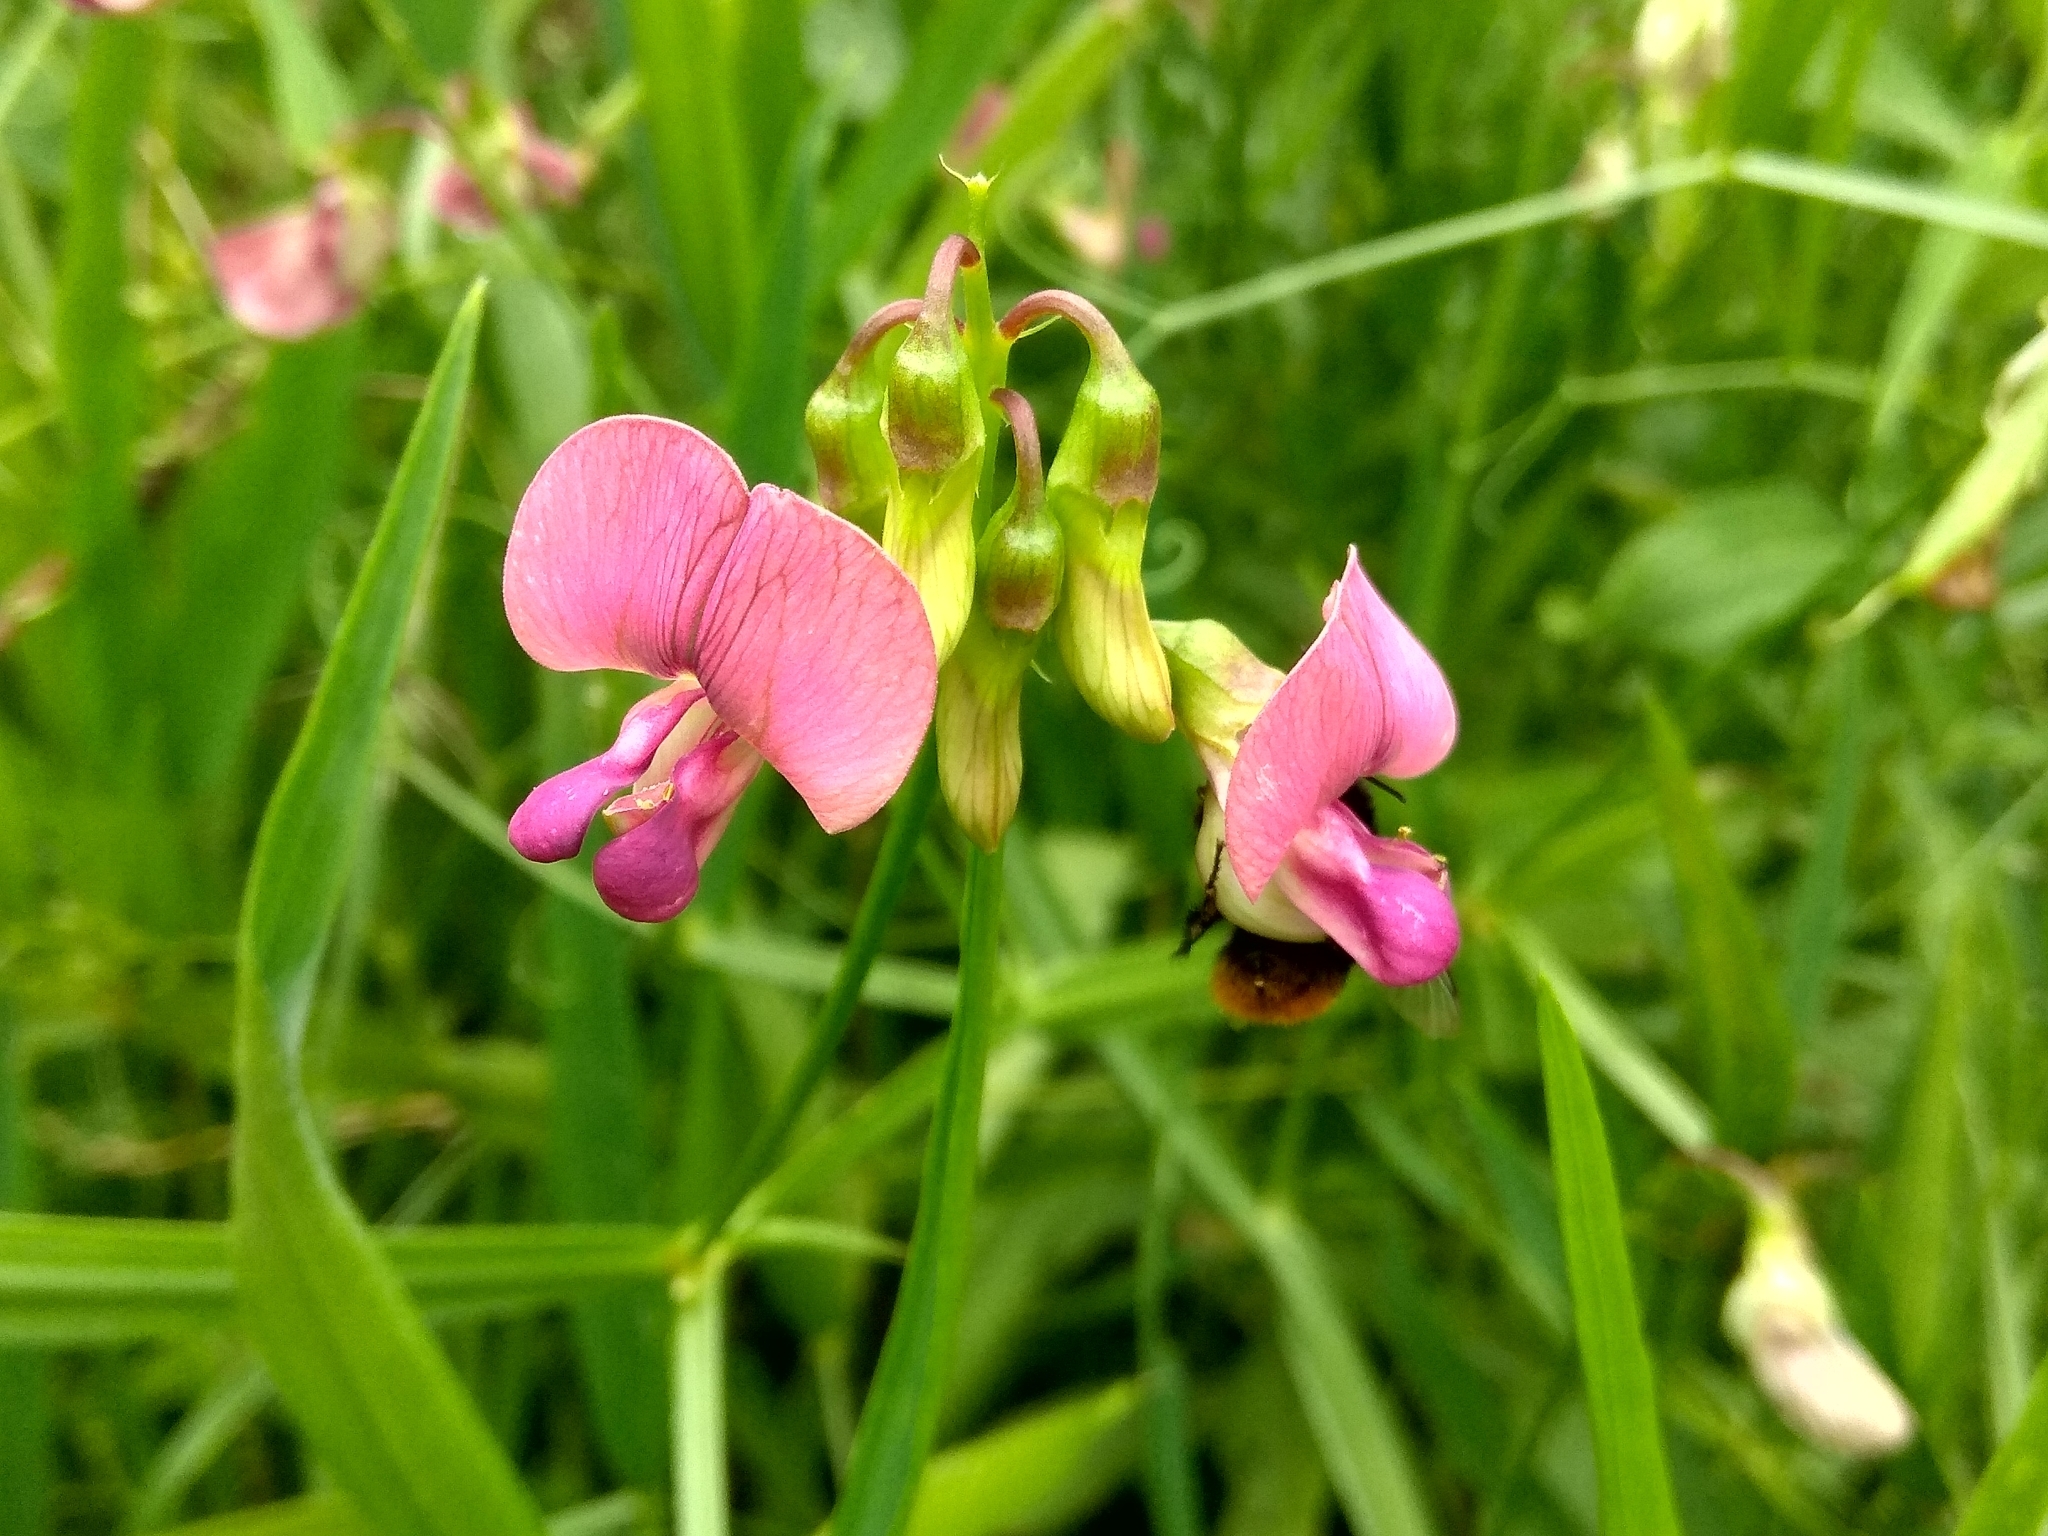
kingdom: Plantae
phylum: Tracheophyta
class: Magnoliopsida
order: Fabales
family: Fabaceae
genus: Lathyrus
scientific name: Lathyrus sylvestris
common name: Flat pea
